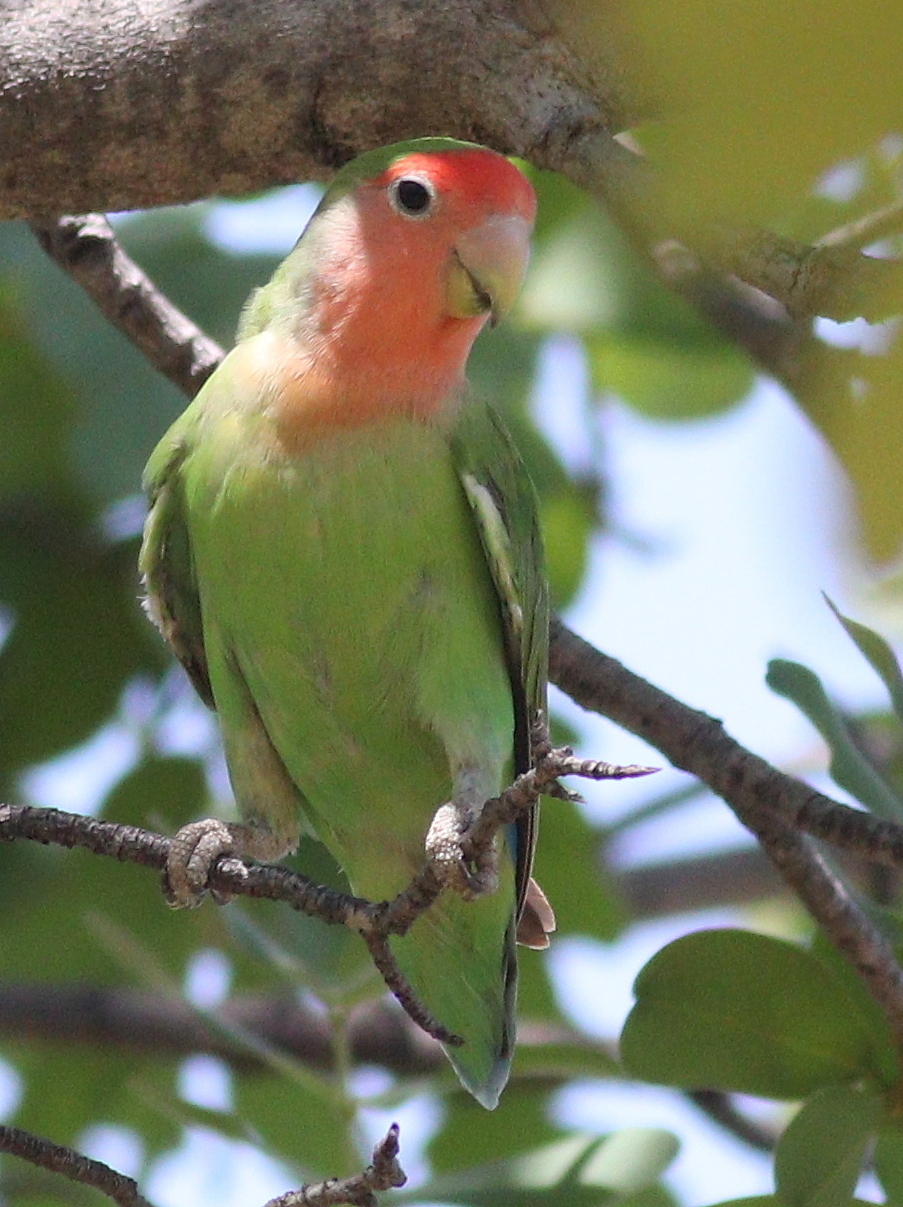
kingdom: Animalia
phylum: Chordata
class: Aves
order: Psittaciformes
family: Psittacidae
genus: Agapornis
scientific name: Agapornis roseicollis
